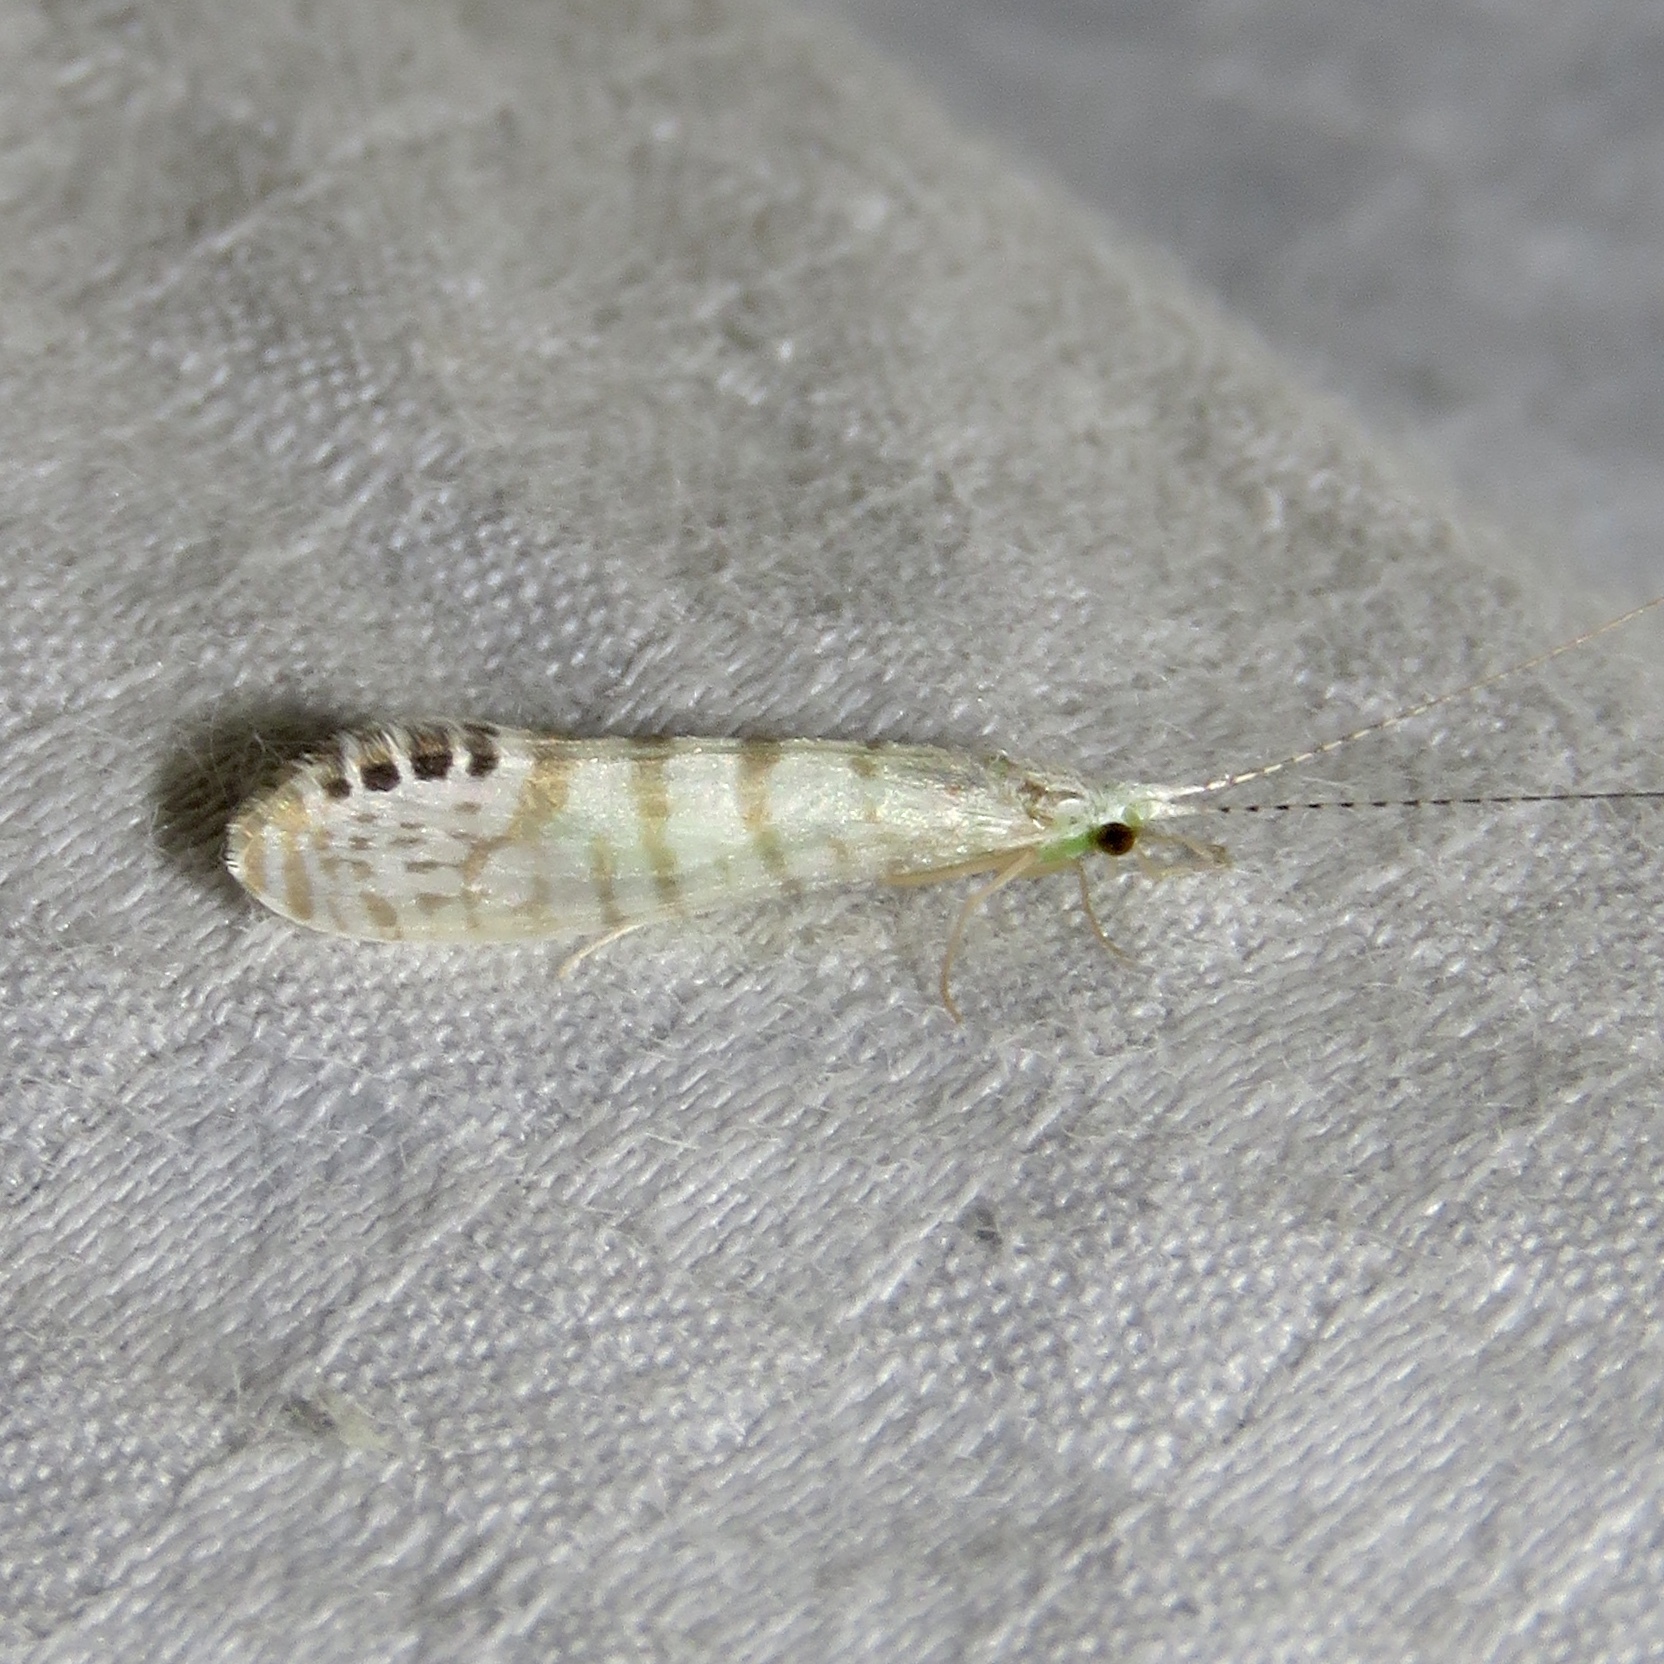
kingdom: Animalia
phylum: Arthropoda
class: Insecta
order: Trichoptera
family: Leptoceridae
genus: Nectopsyche
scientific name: Nectopsyche exquisita
